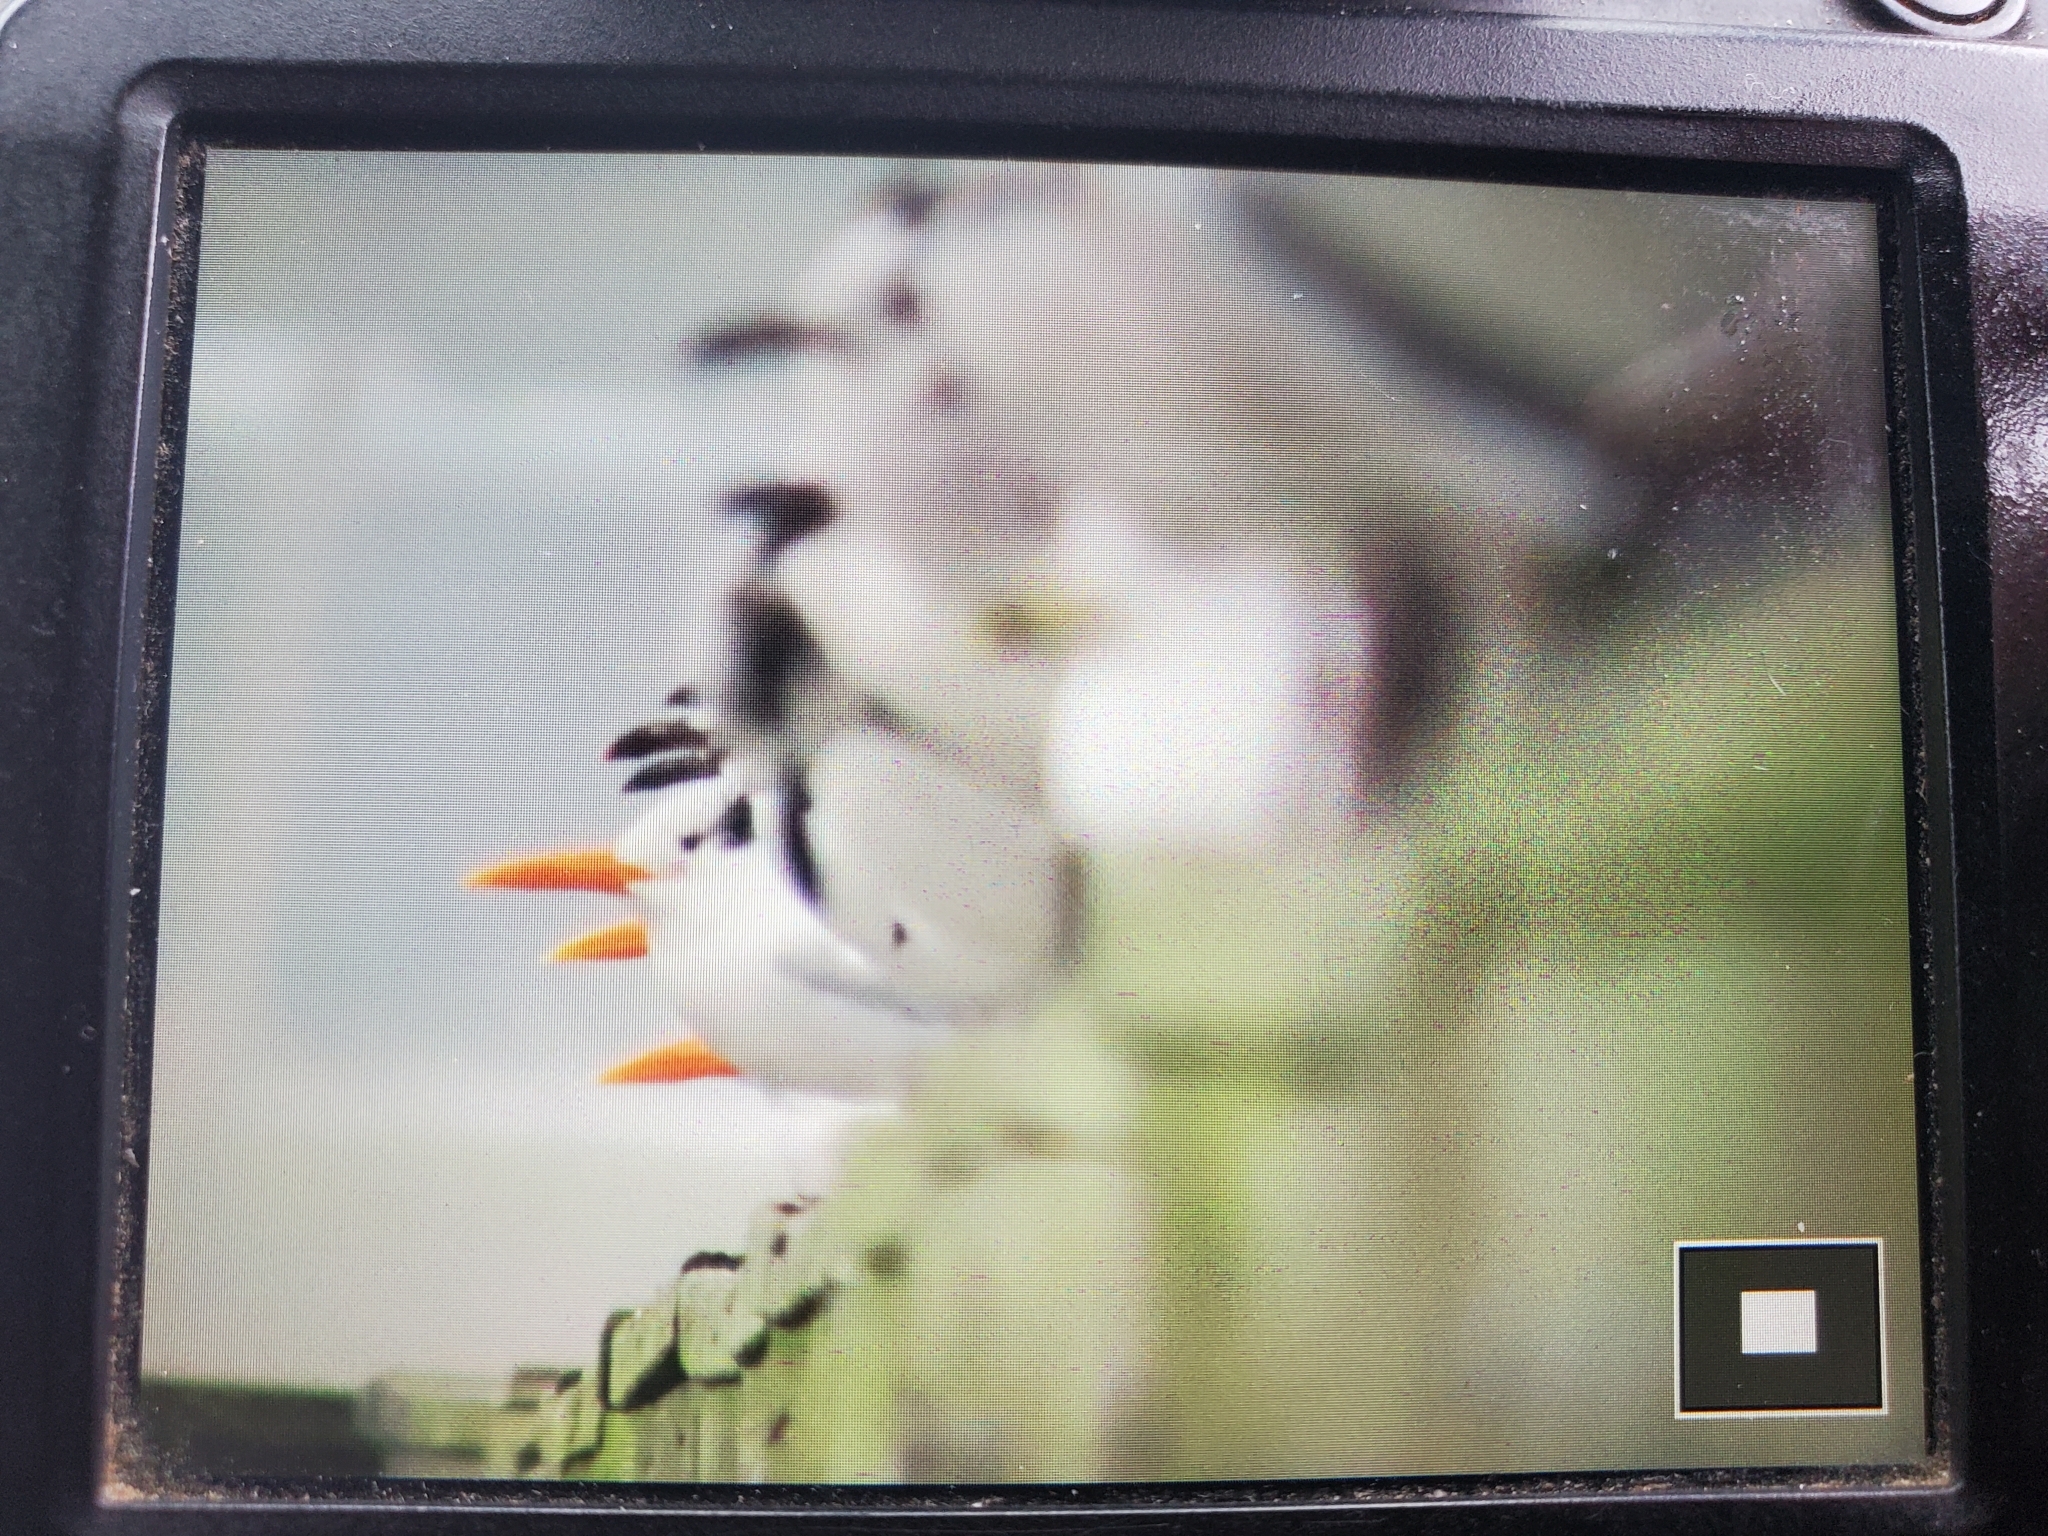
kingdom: Animalia
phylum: Chordata
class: Aves
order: Charadriiformes
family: Laridae
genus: Thalasseus
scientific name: Thalasseus maximus
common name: Royal tern
